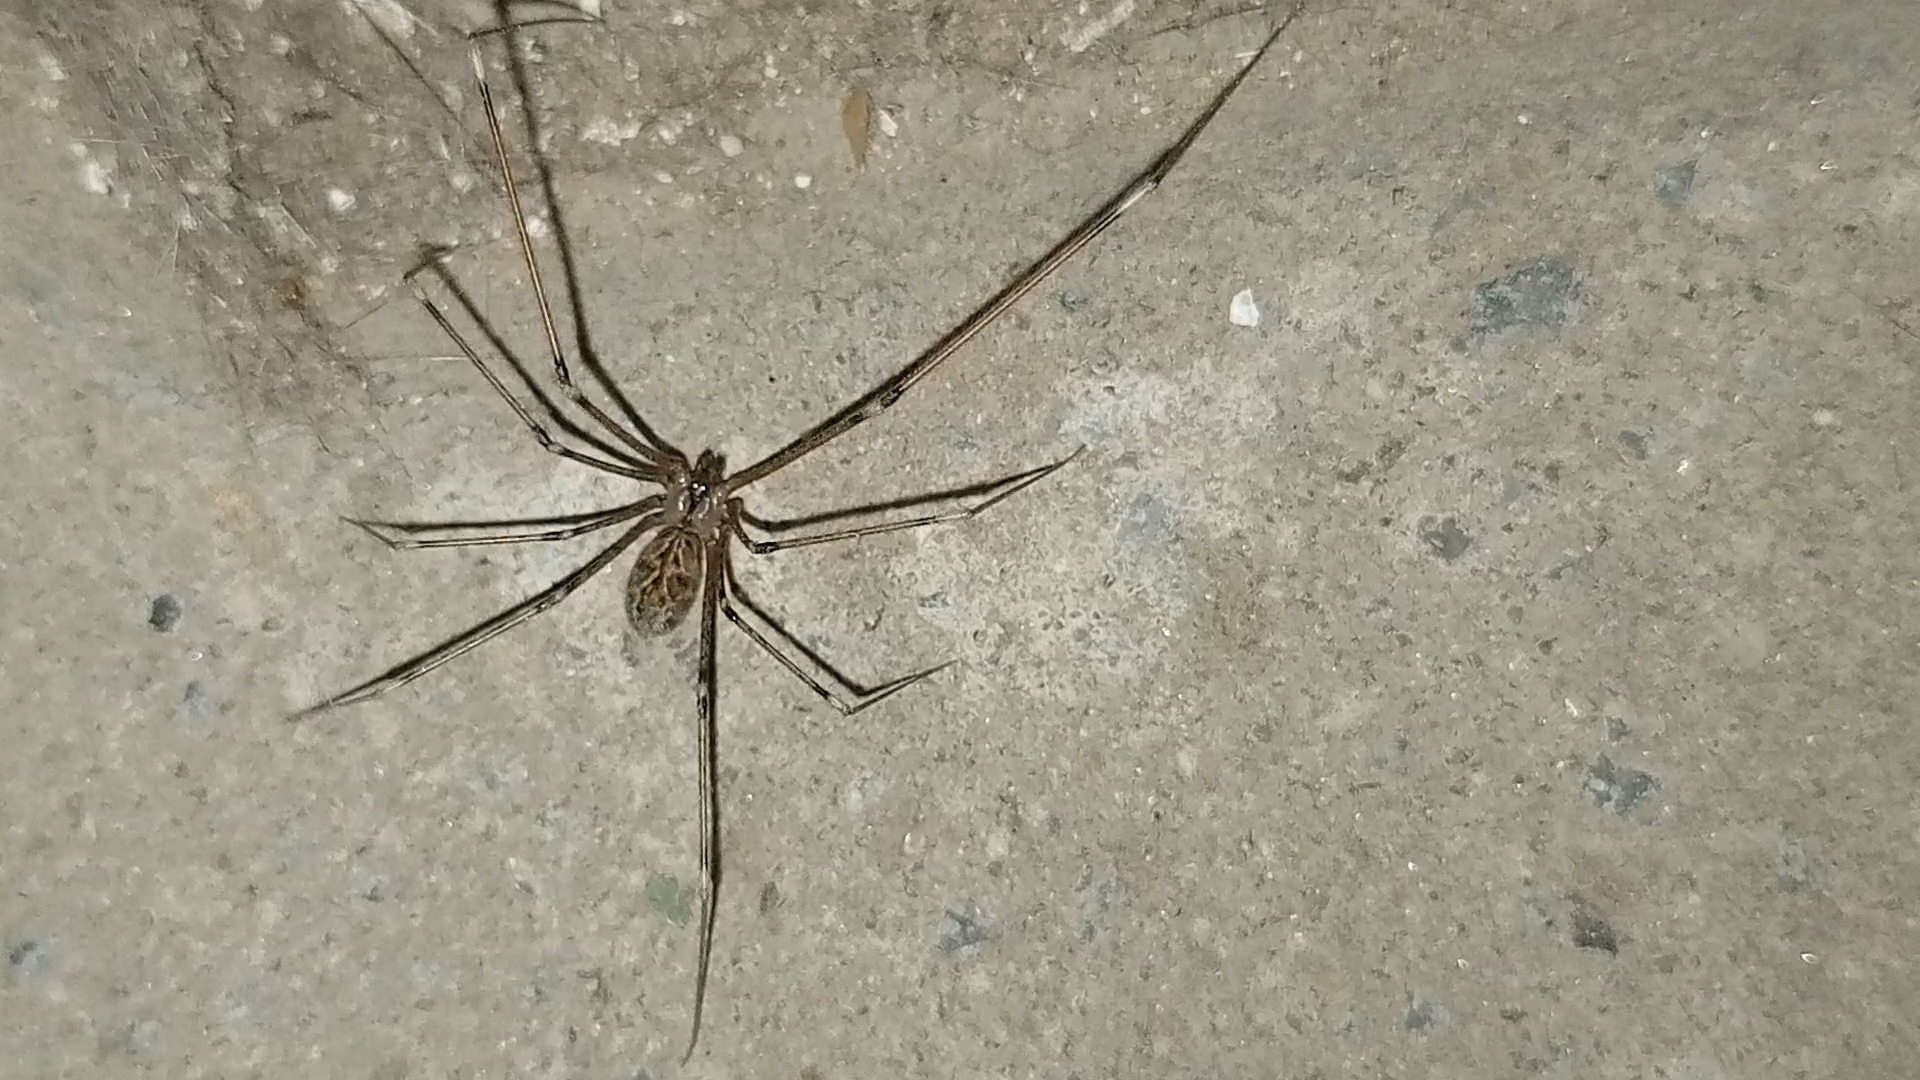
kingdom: Animalia
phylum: Arthropoda
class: Arachnida
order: Araneae
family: Pholcidae
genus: Holocnemus
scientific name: Holocnemus pluchei
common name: Marbled cellar spider
